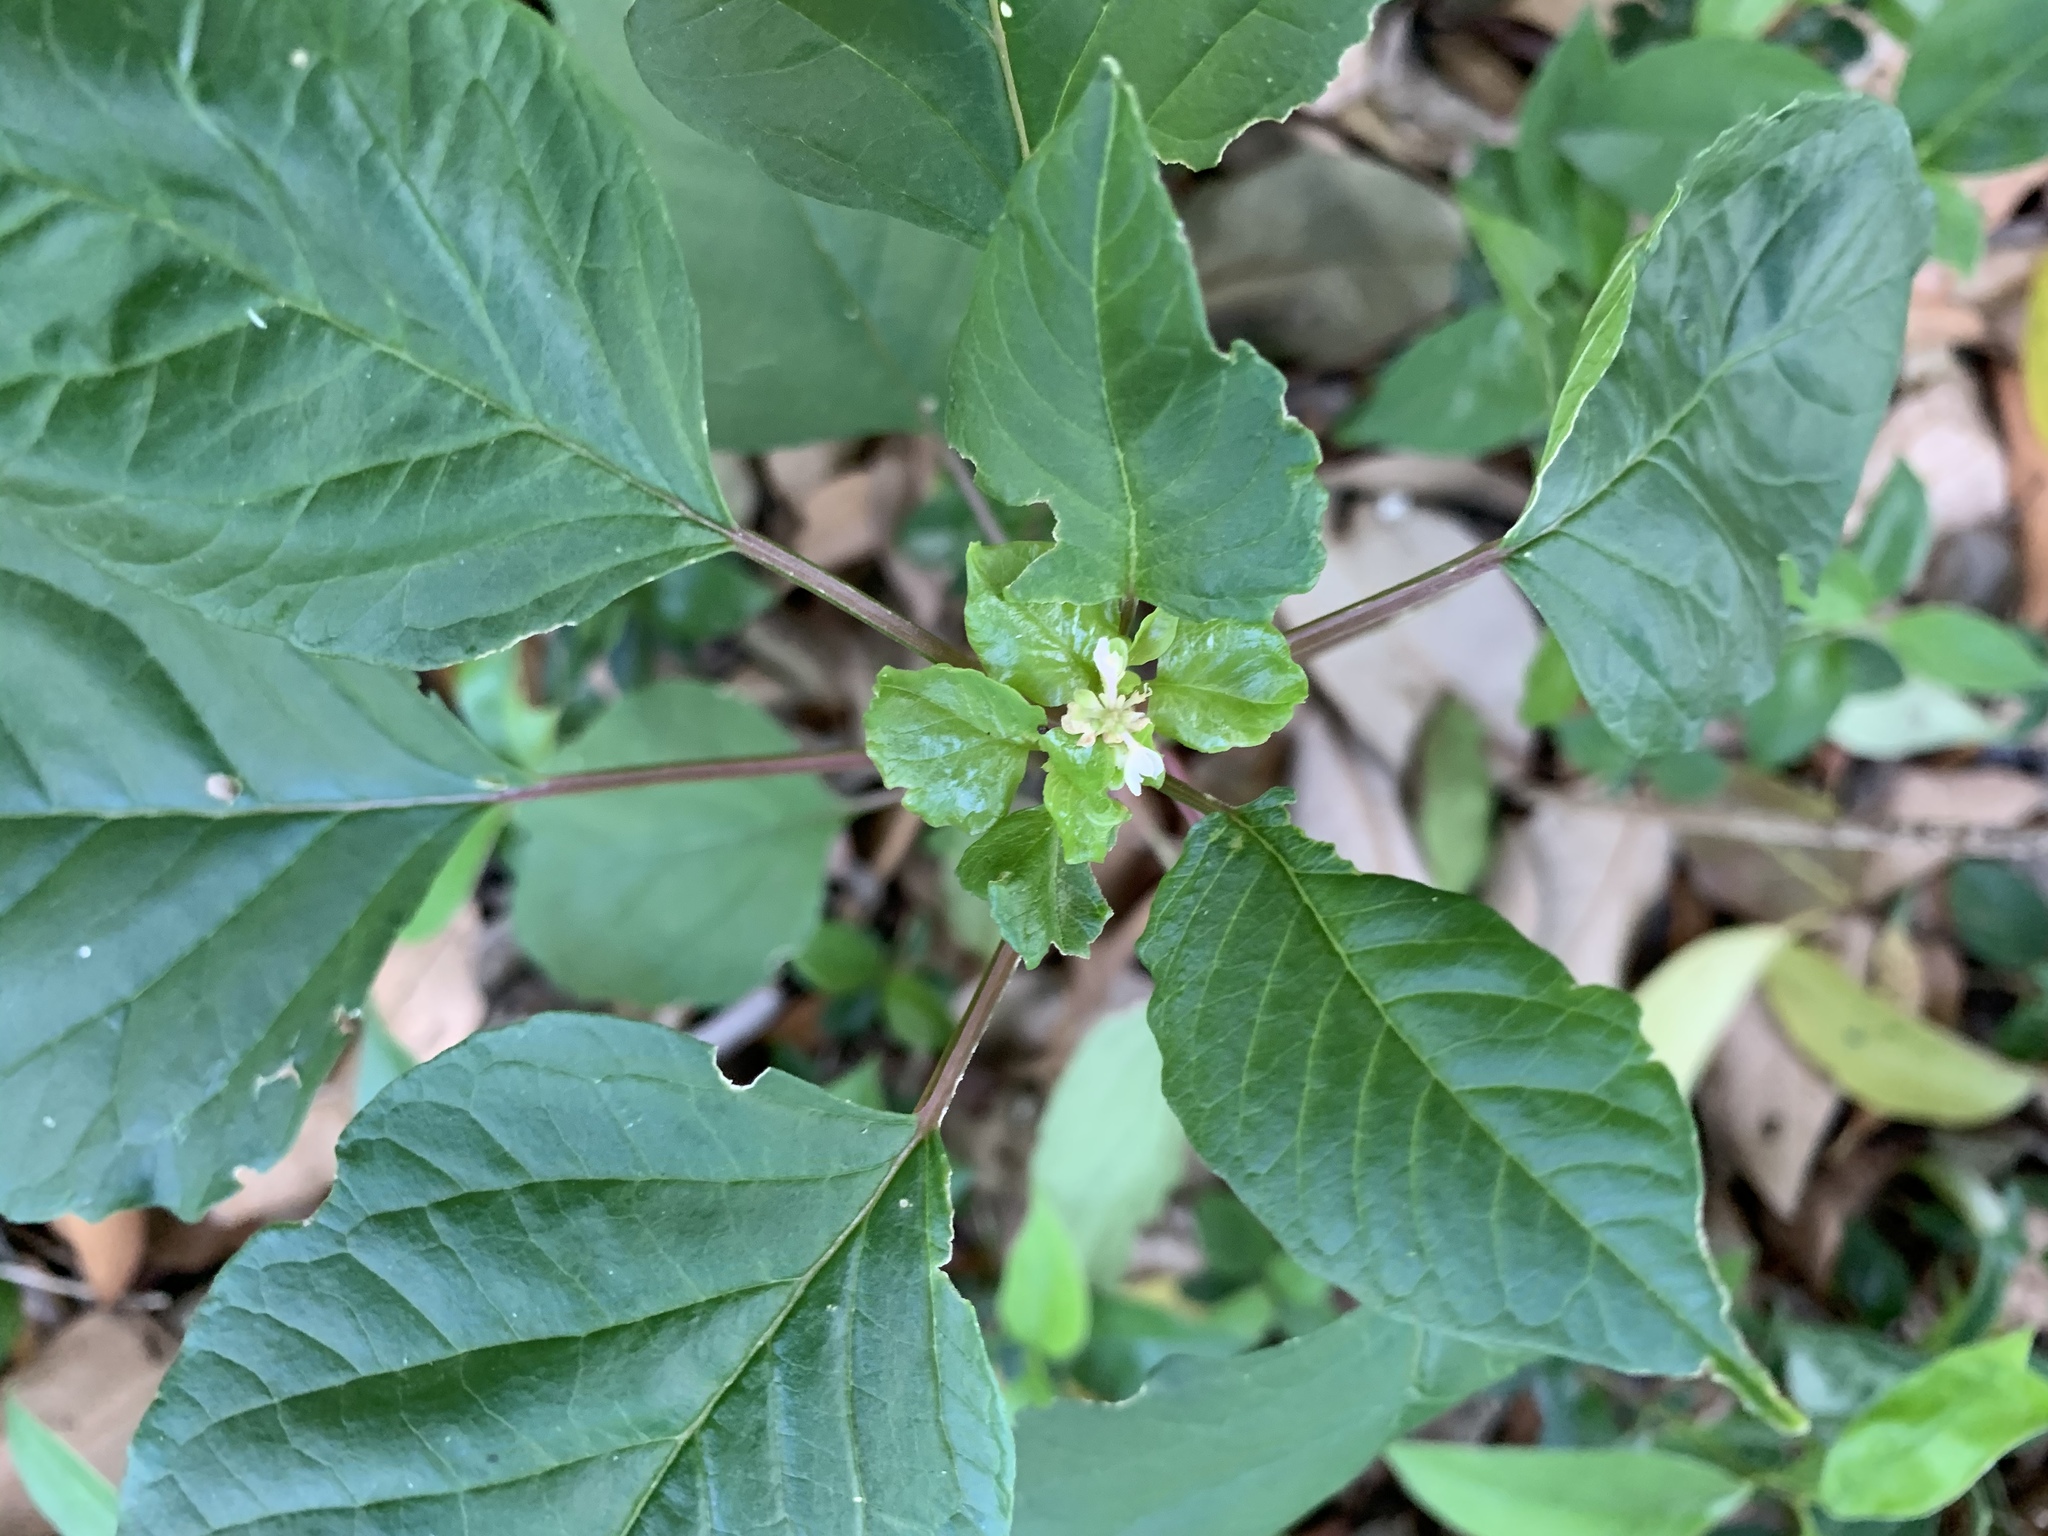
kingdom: Plantae
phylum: Tracheophyta
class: Magnoliopsida
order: Caryophyllales
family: Phytolaccaceae
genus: Rivina
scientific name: Rivina humilis
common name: Rougeplant
